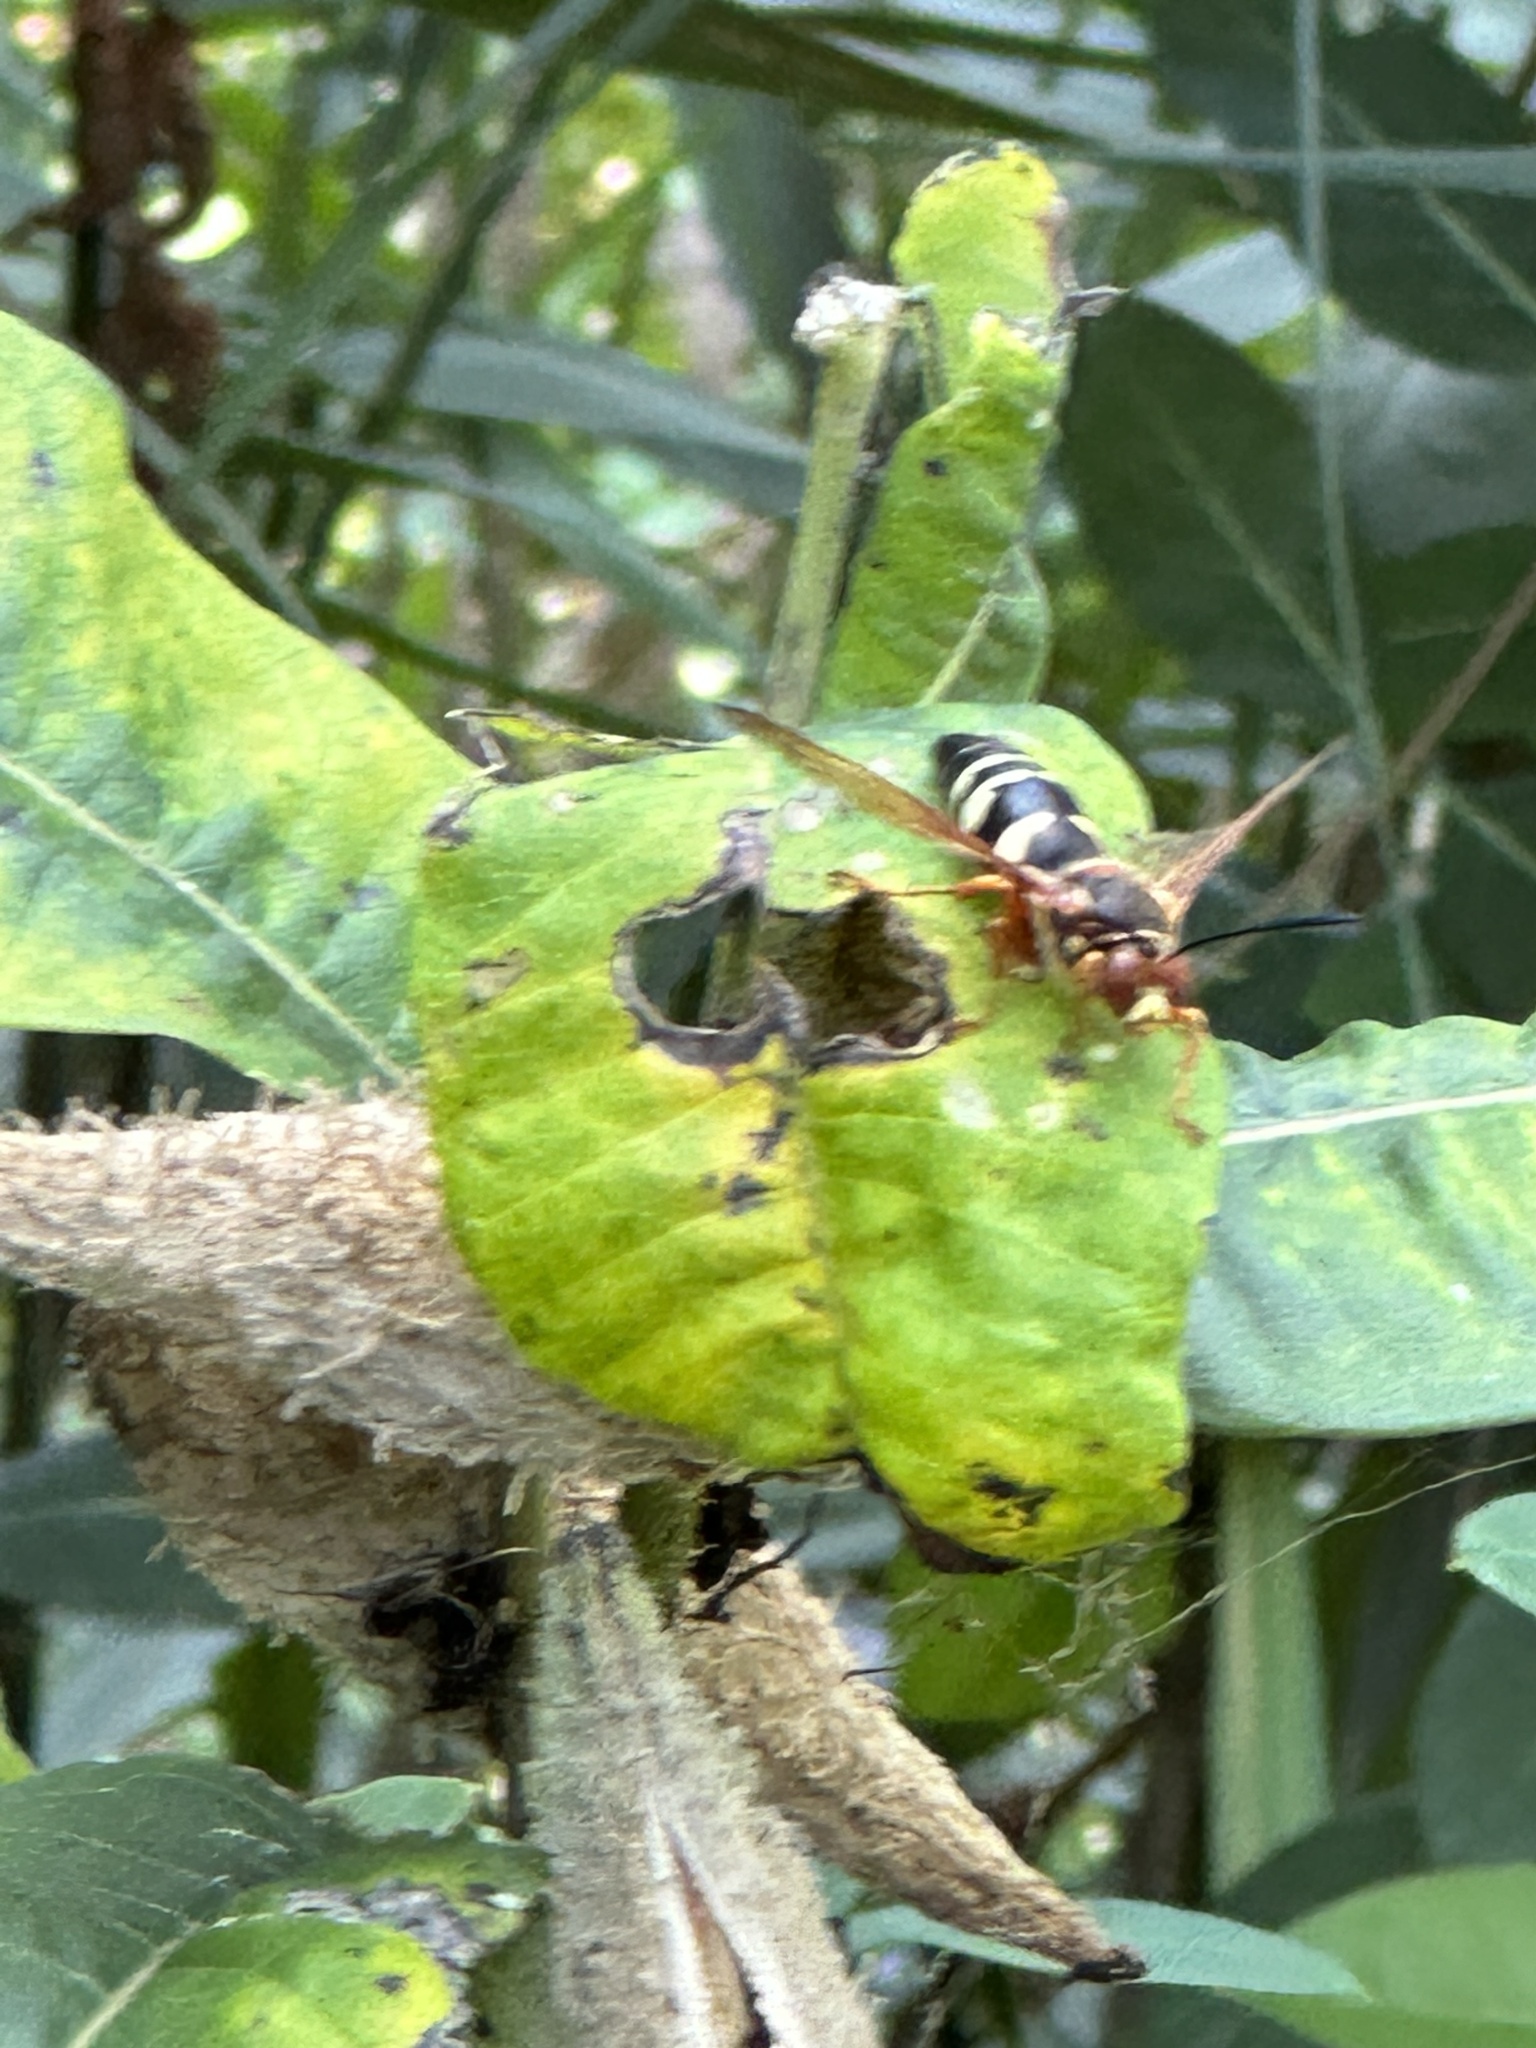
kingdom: Animalia
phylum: Arthropoda
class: Insecta
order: Hymenoptera
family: Crabronidae
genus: Sphecius
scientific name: Sphecius speciosus
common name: Cicada killer
